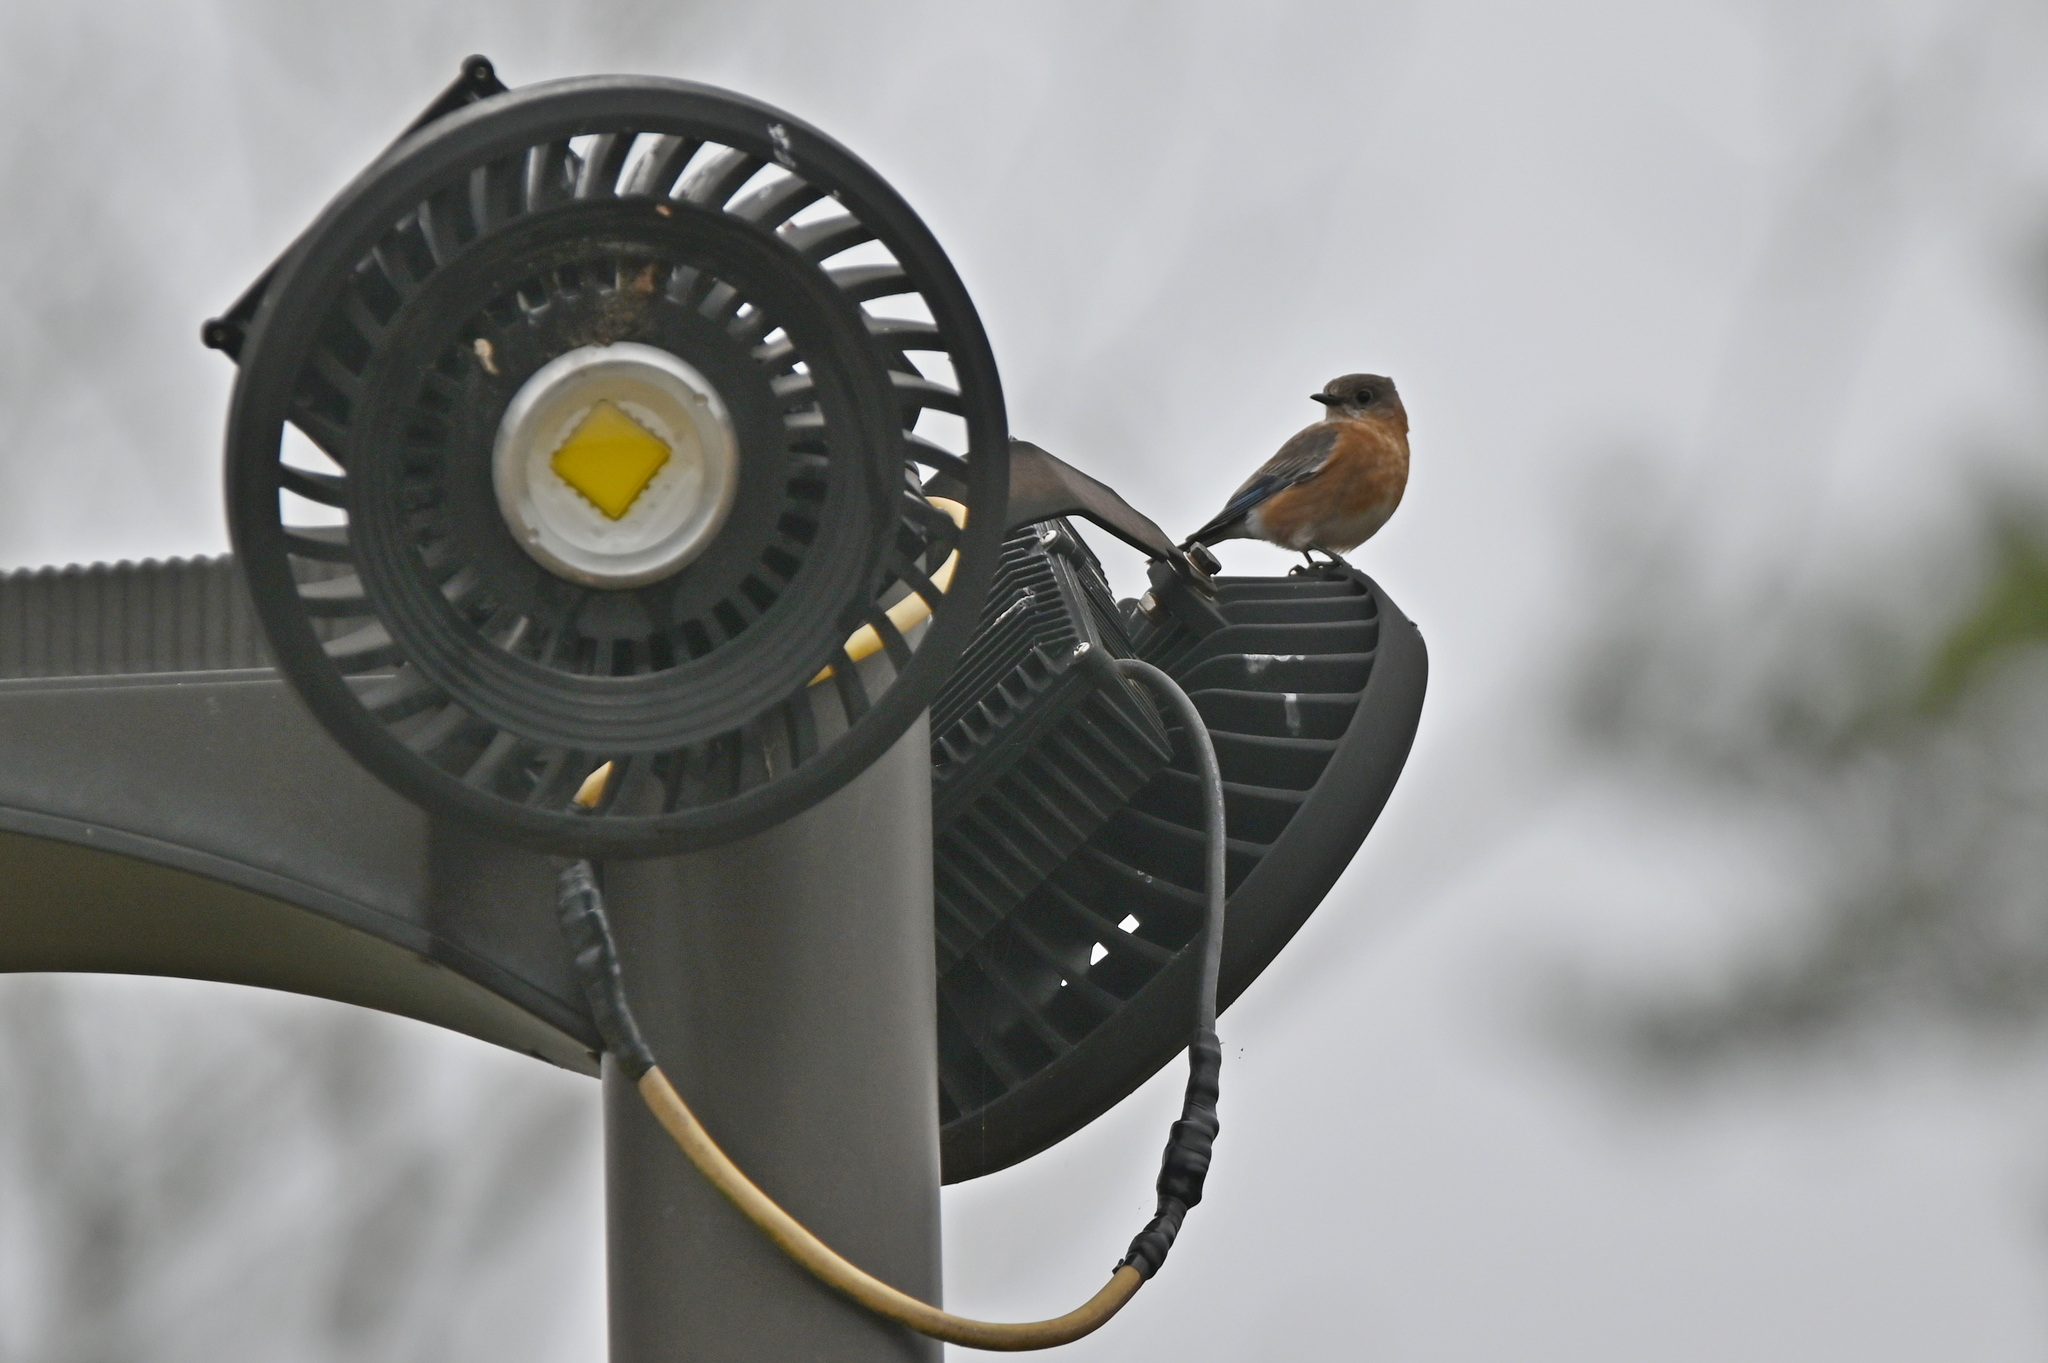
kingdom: Animalia
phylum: Chordata
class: Aves
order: Passeriformes
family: Turdidae
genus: Sialia
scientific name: Sialia sialis
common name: Eastern bluebird
